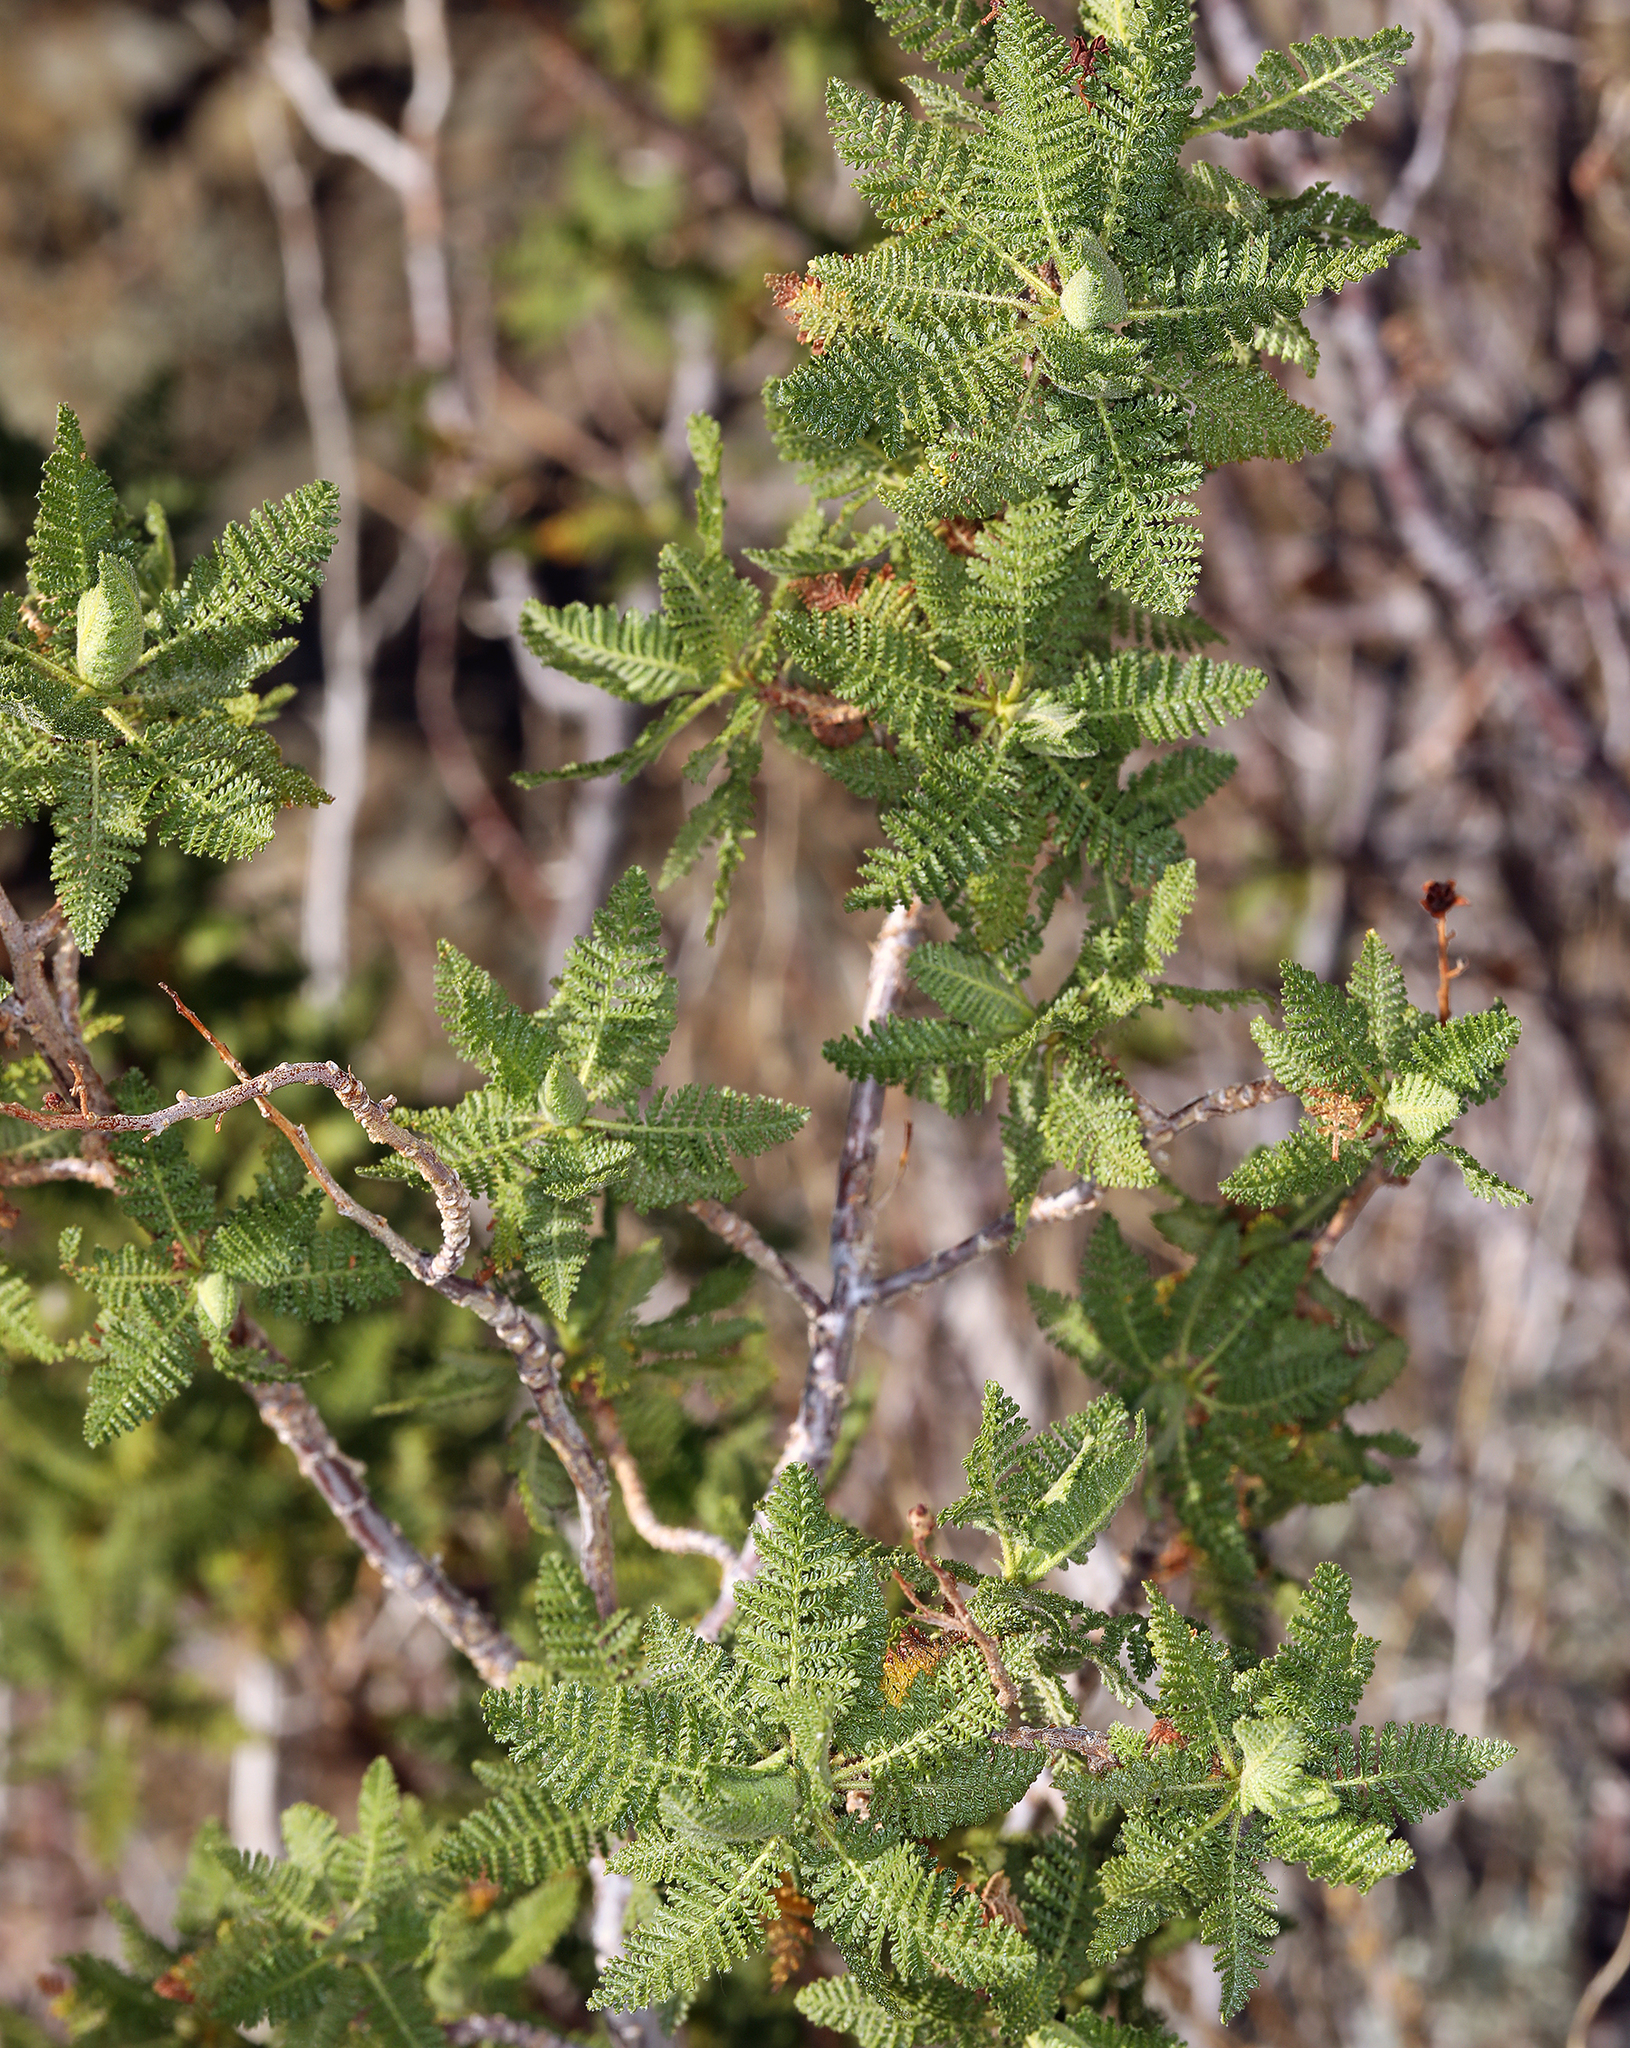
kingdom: Plantae
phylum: Tracheophyta
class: Magnoliopsida
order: Rosales
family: Rosaceae
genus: Chamaebatiaria
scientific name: Chamaebatiaria millefolium
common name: Fernbush
